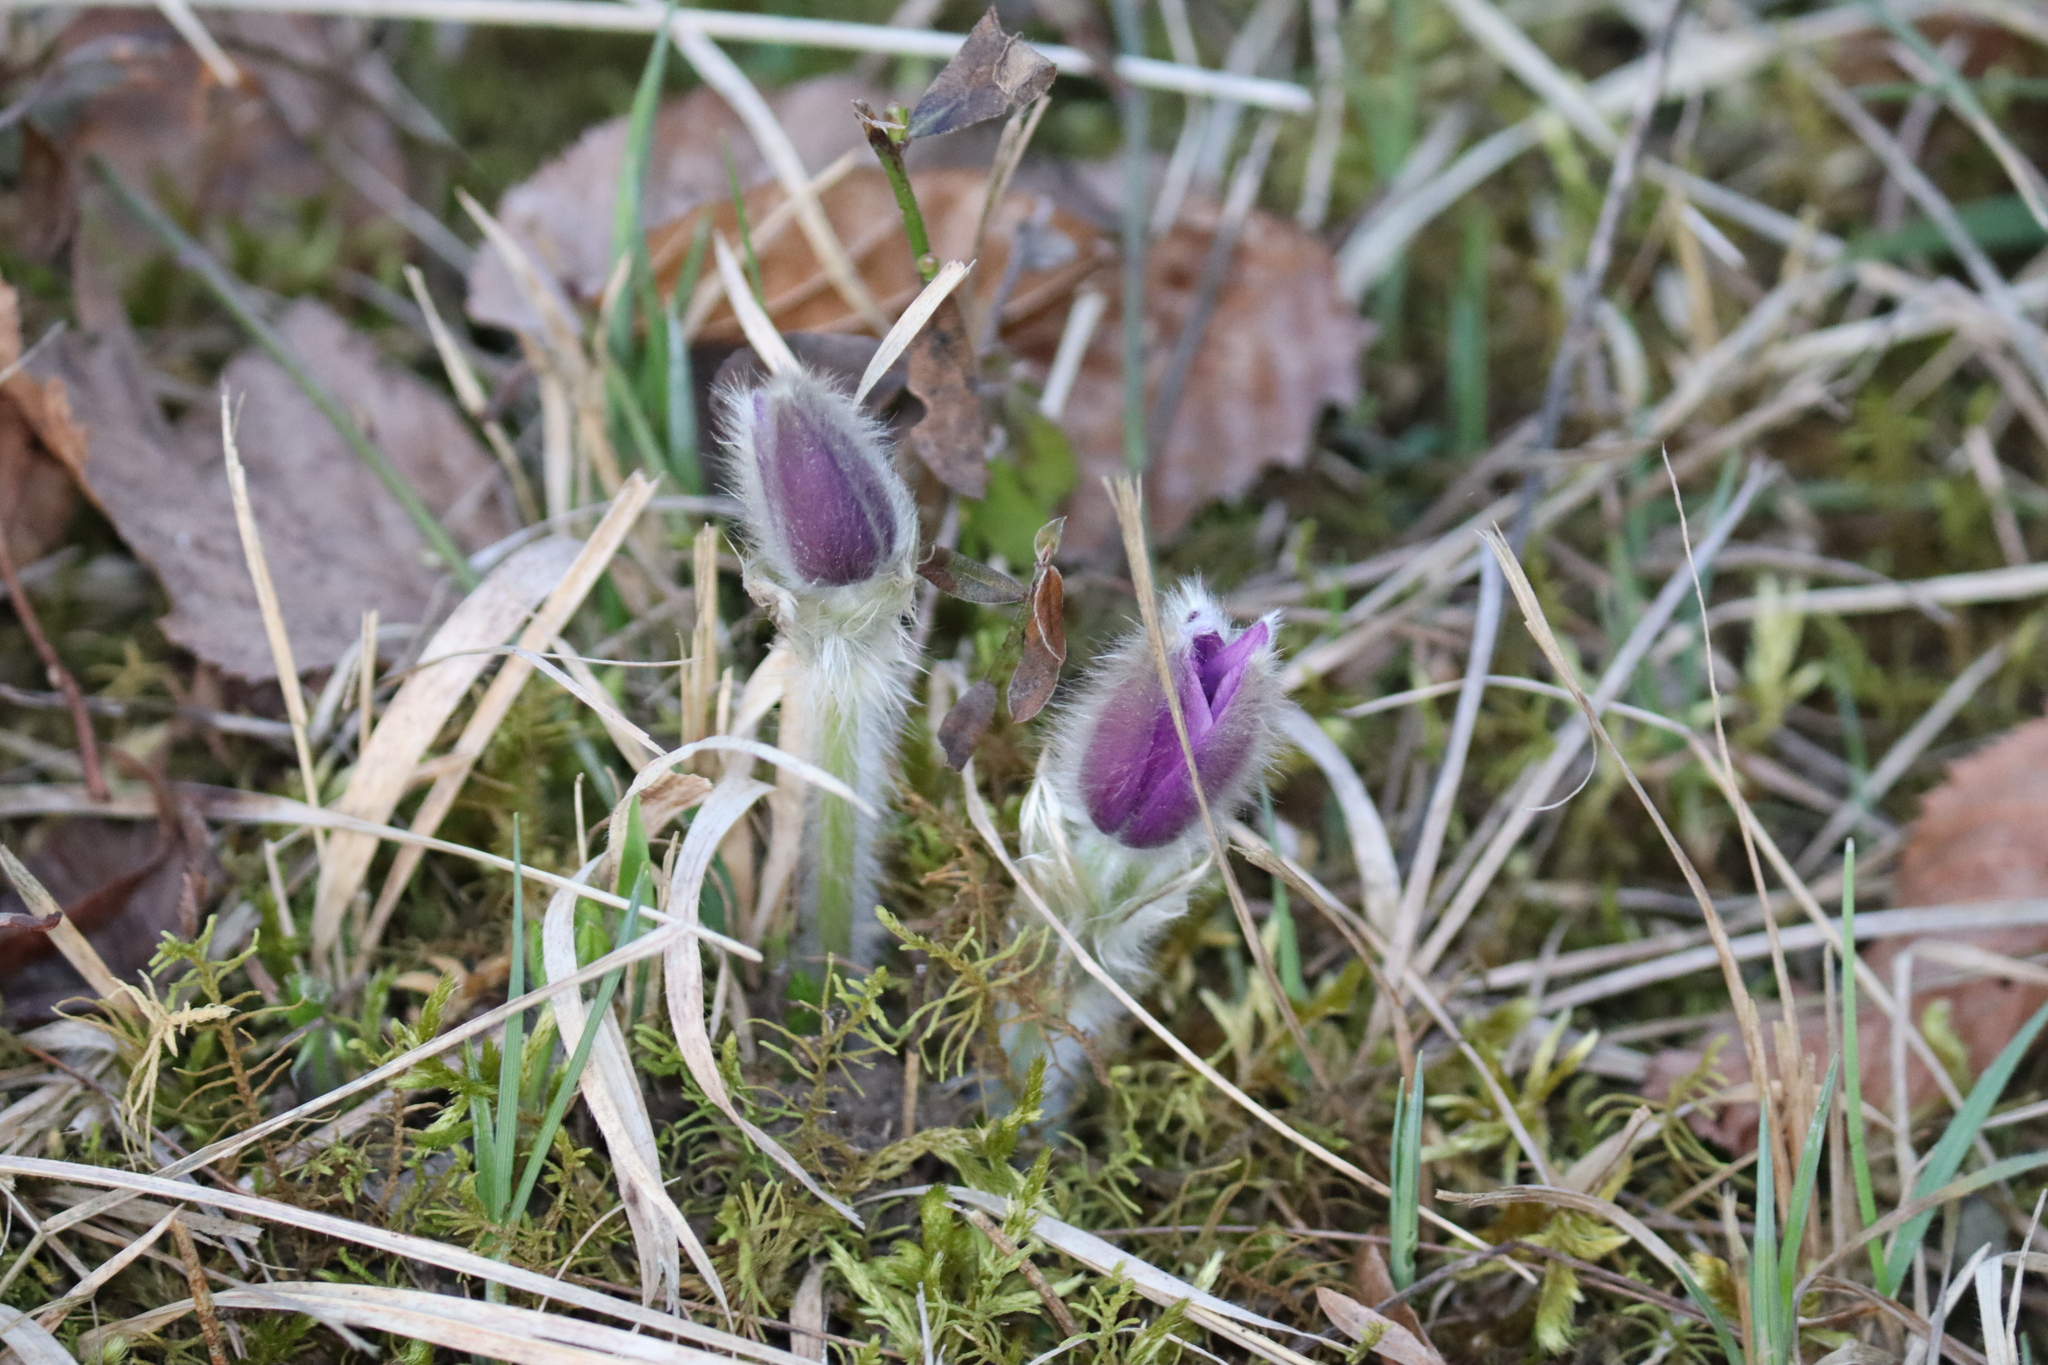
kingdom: Plantae
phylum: Tracheophyta
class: Magnoliopsida
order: Ranunculales
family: Ranunculaceae
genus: Pulsatilla
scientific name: Pulsatilla grandis
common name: Greater pasque flower
